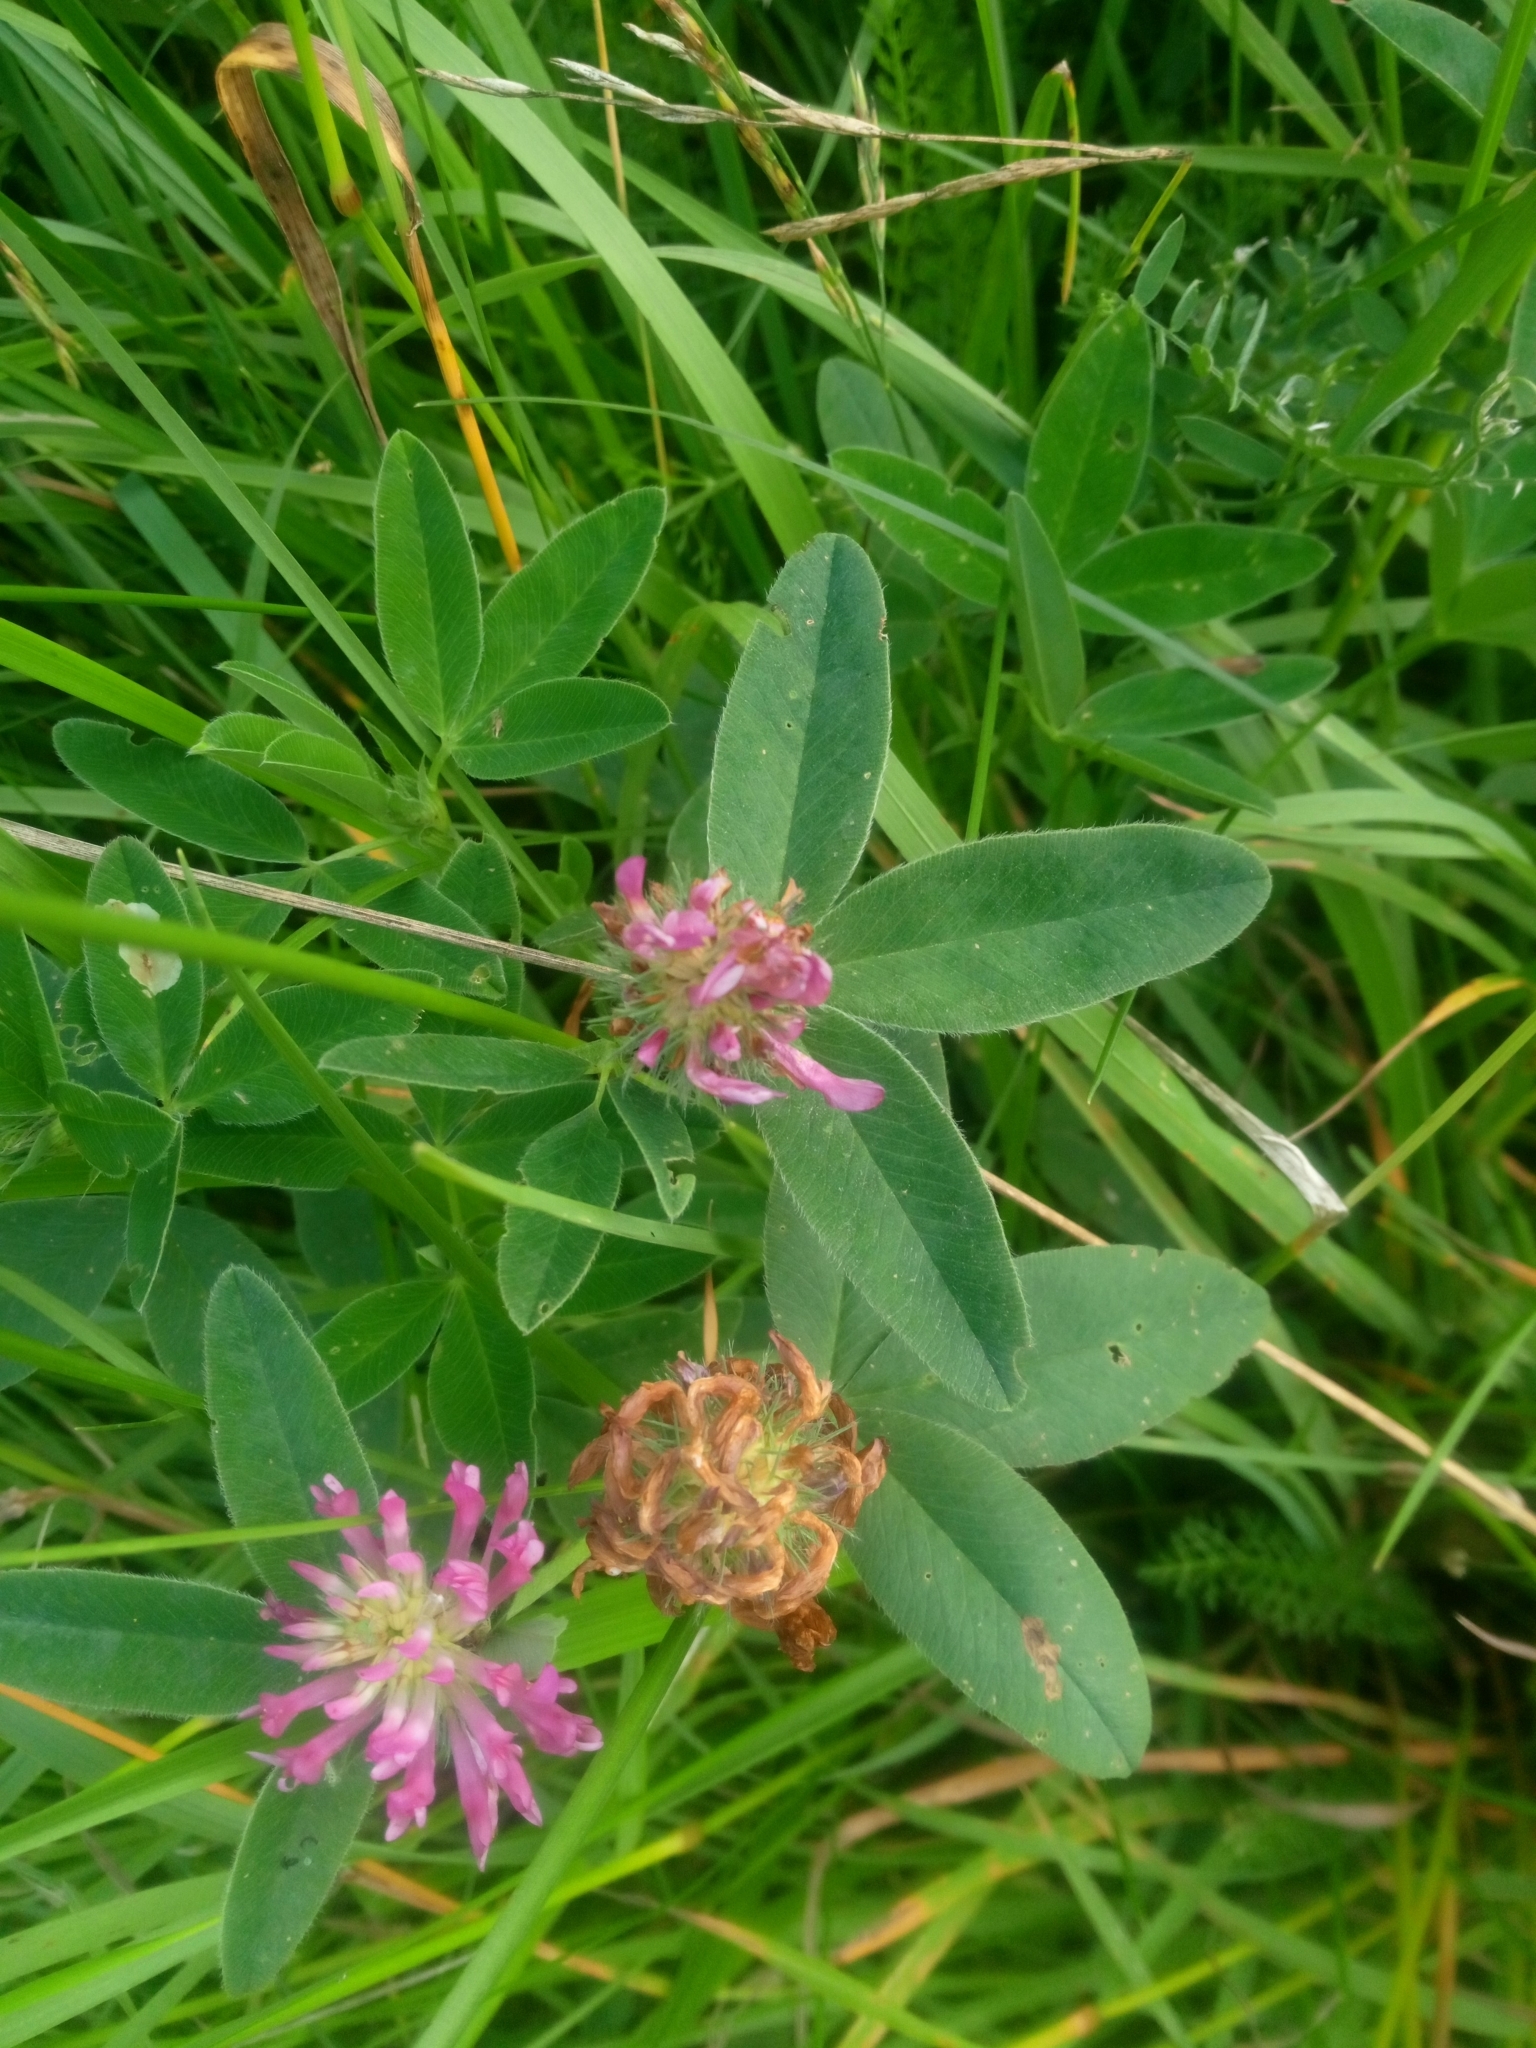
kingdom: Plantae
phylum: Tracheophyta
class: Magnoliopsida
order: Fabales
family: Fabaceae
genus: Trifolium
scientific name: Trifolium medium
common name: Zigzag clover
